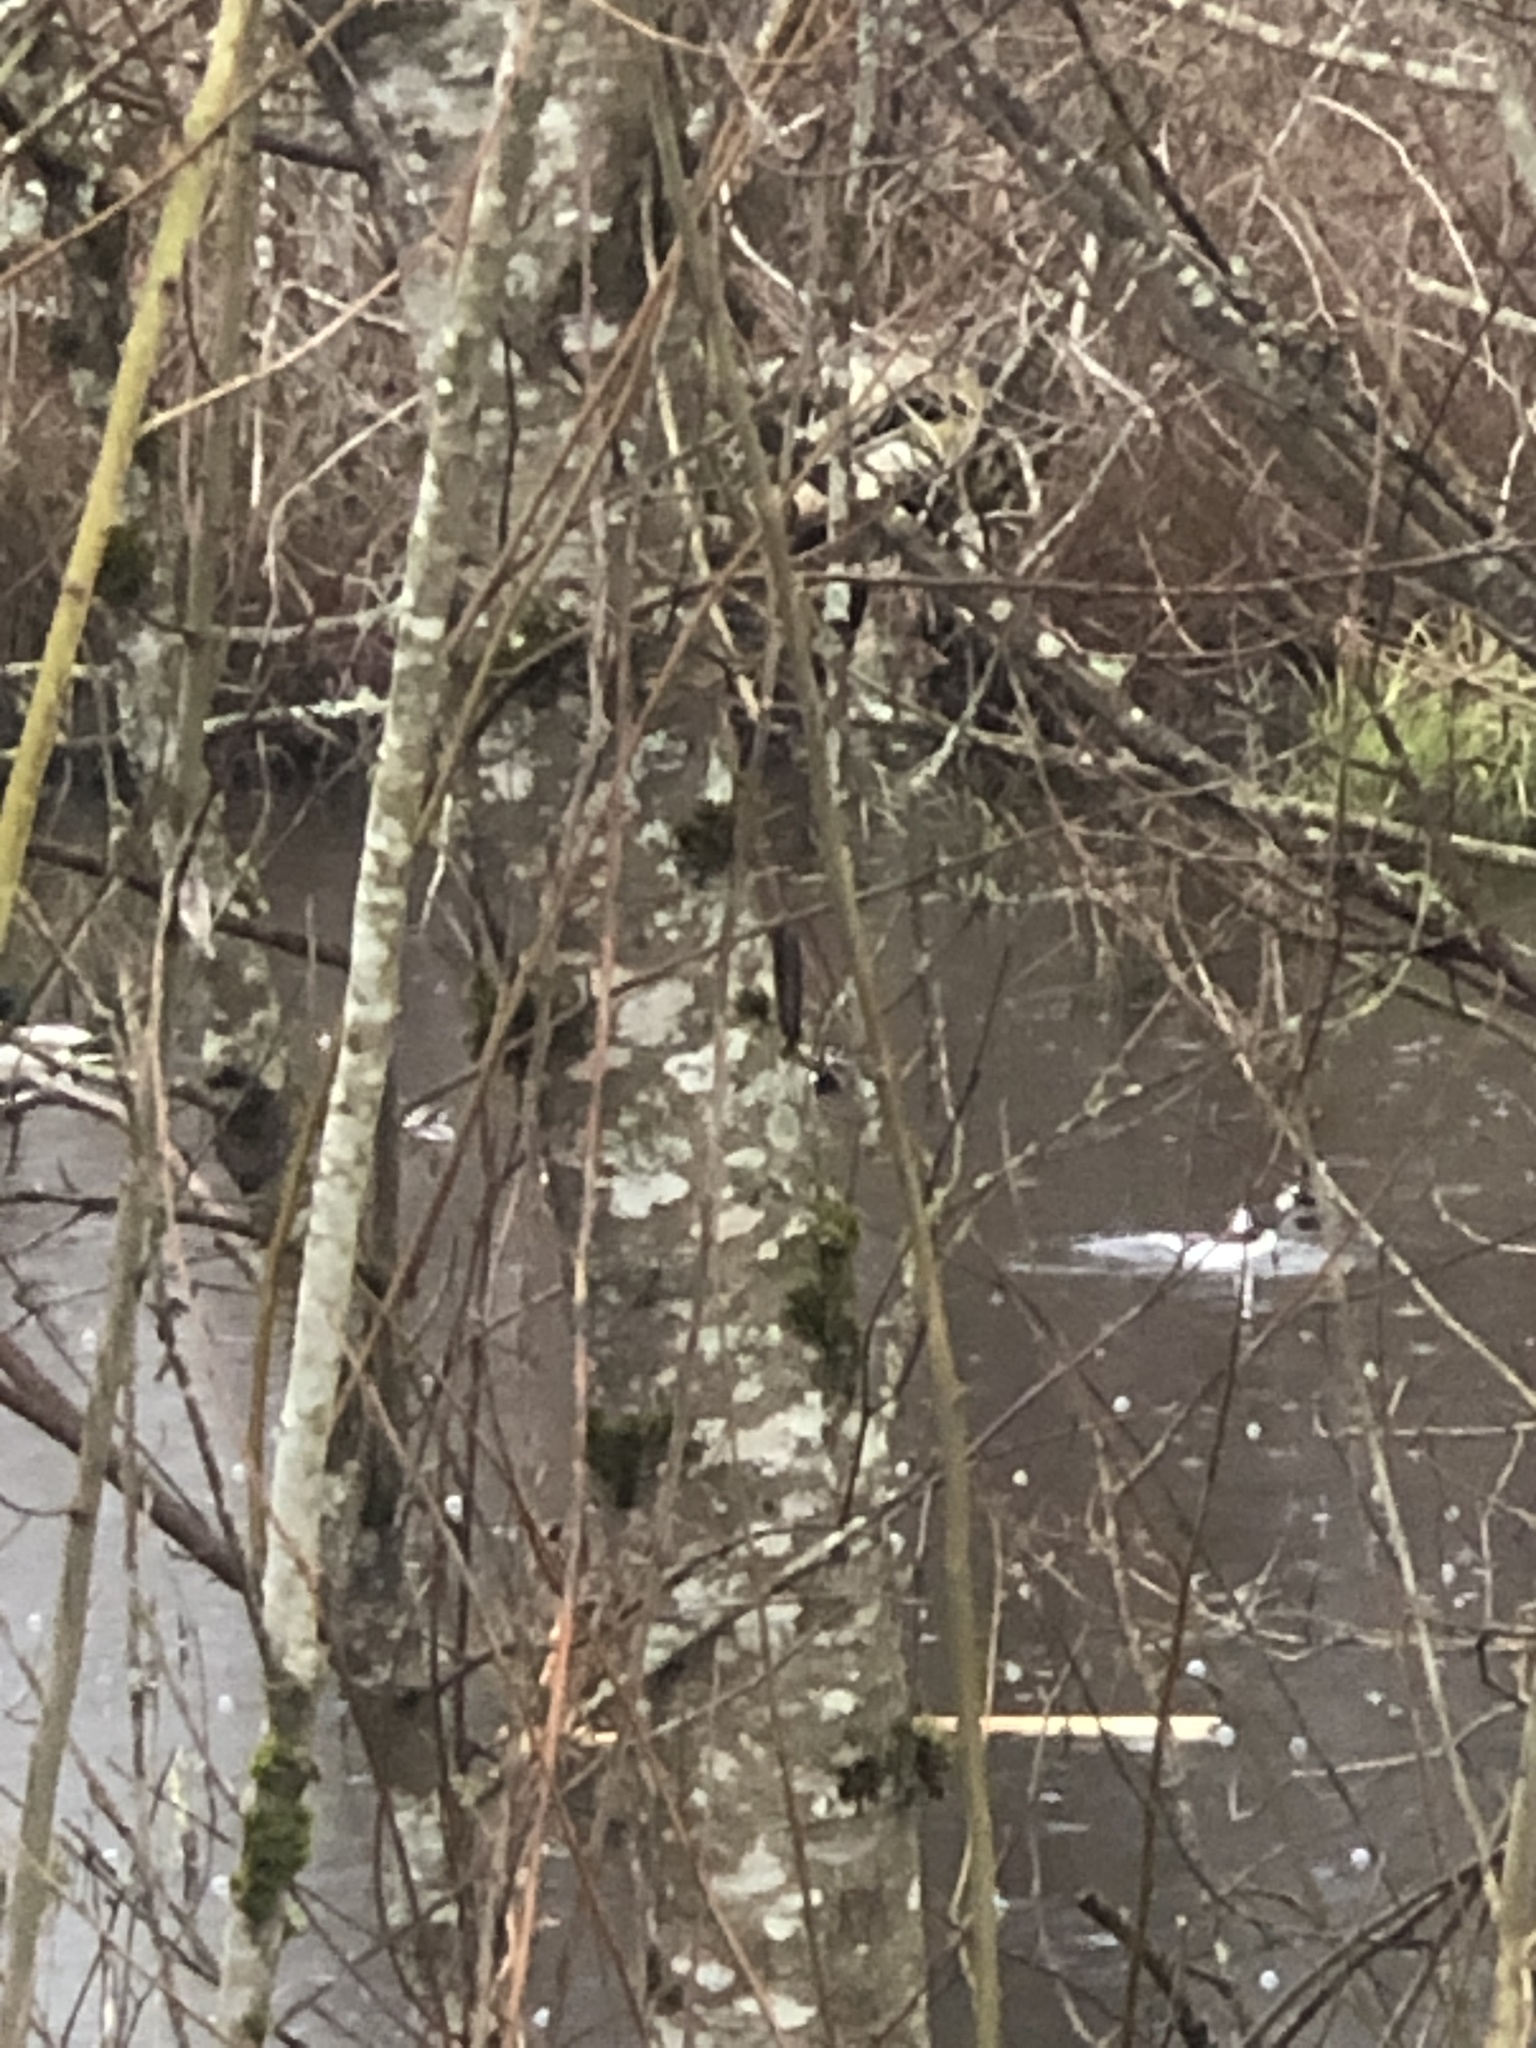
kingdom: Animalia
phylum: Chordata
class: Aves
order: Anseriformes
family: Anatidae
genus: Bucephala
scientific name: Bucephala albeola
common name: Bufflehead
